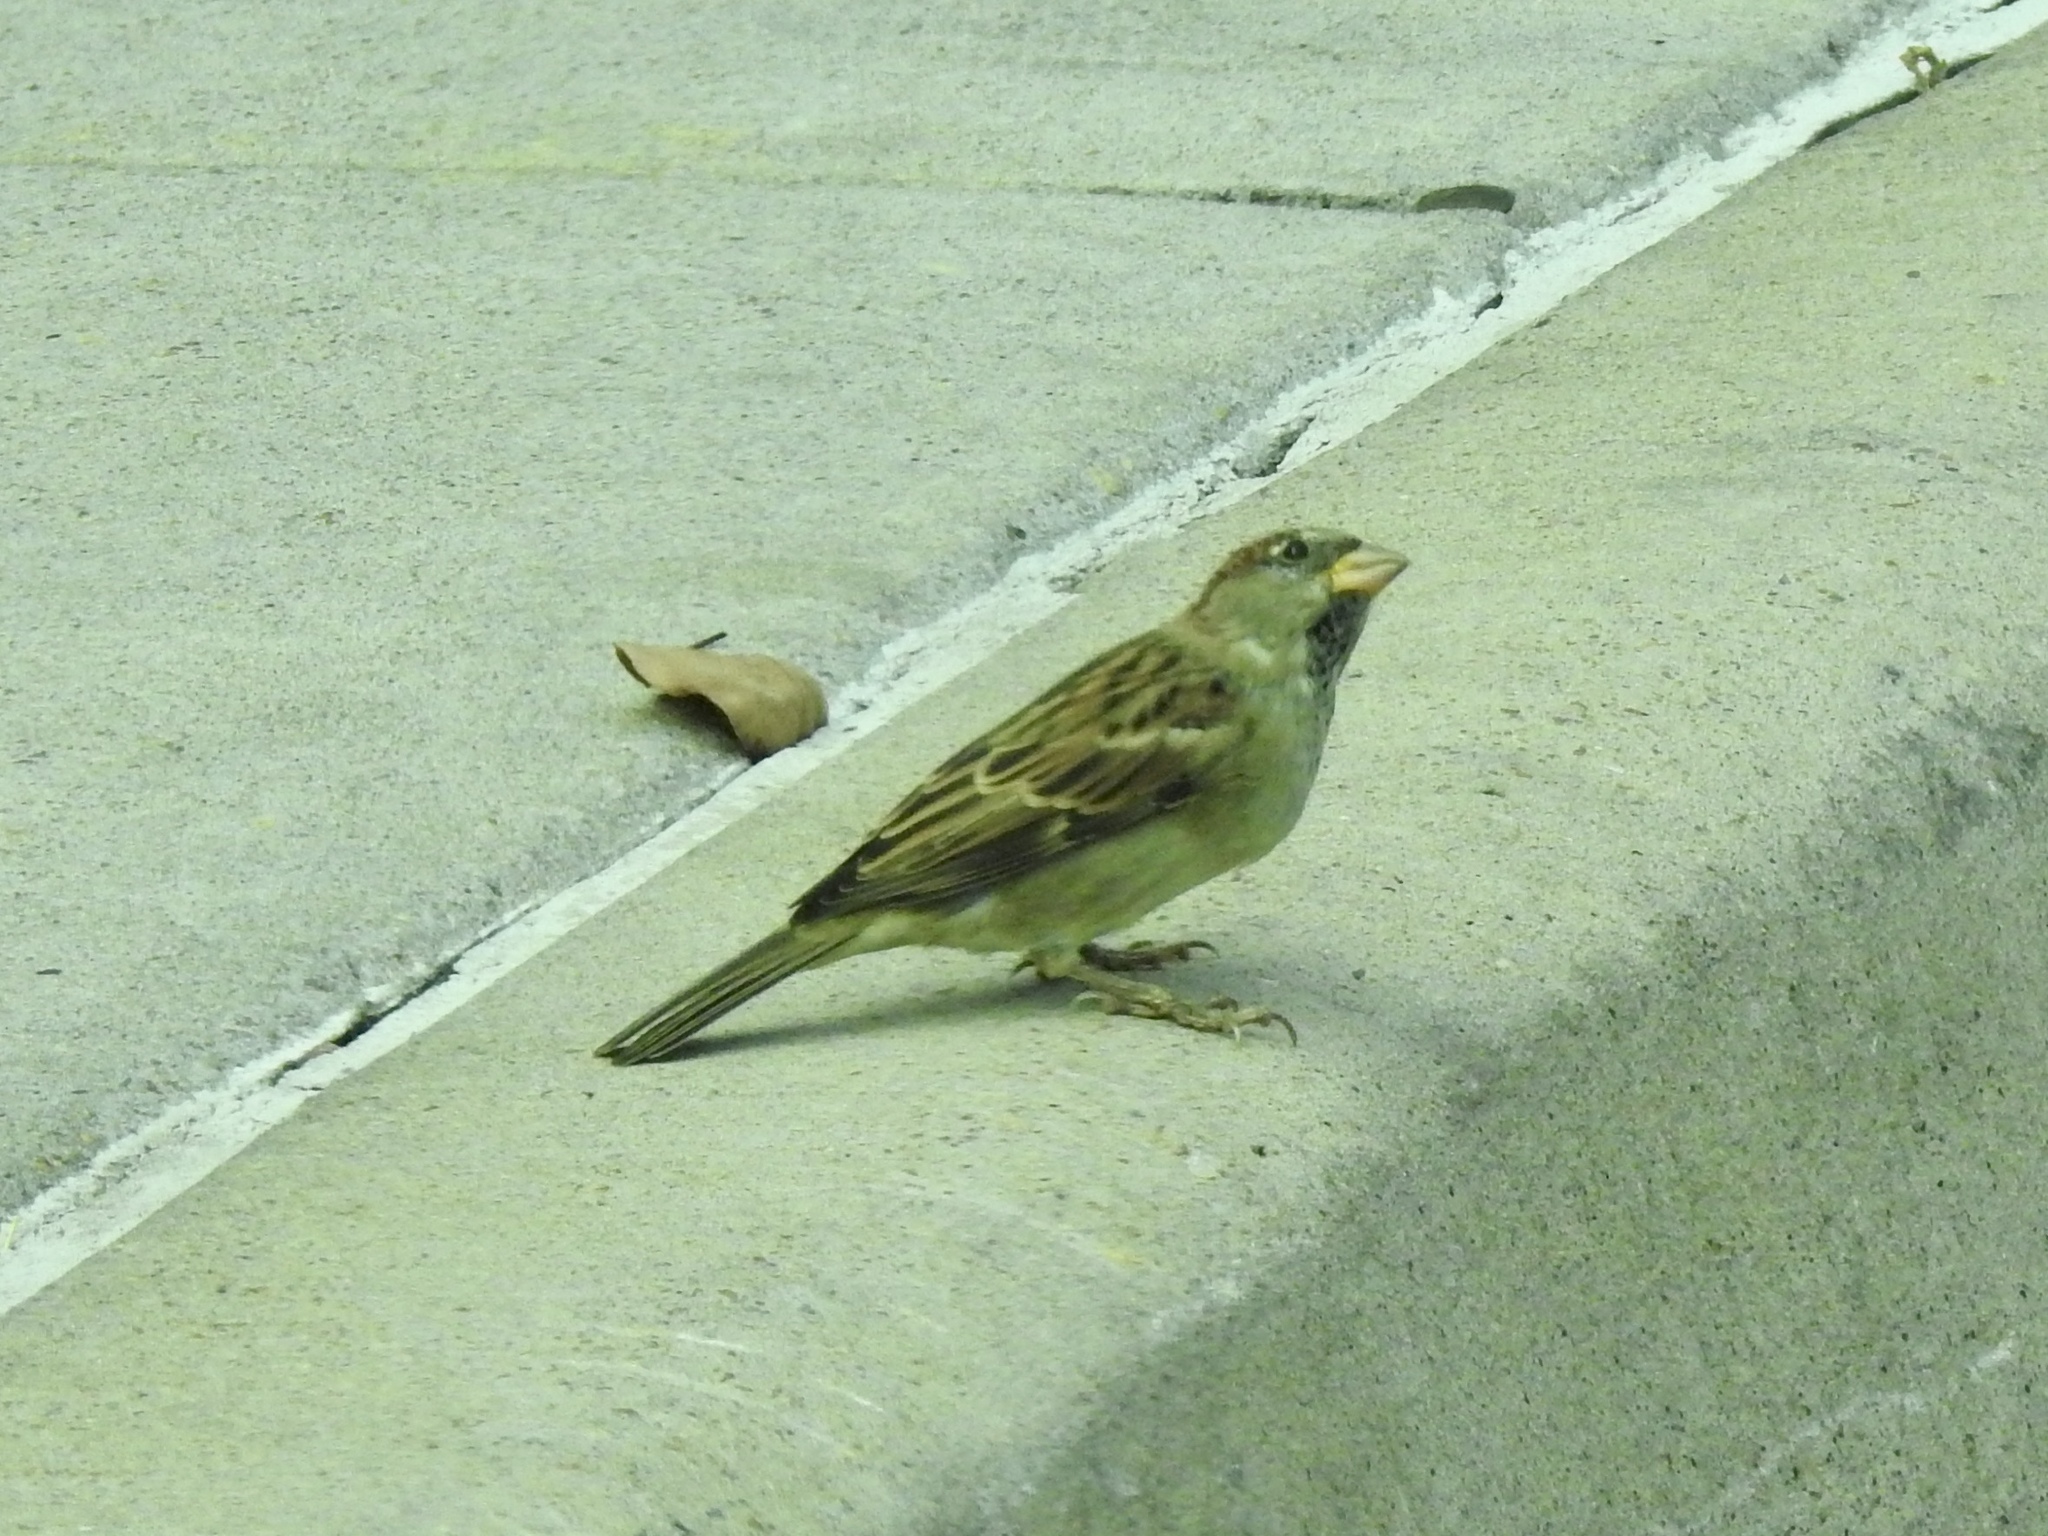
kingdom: Animalia
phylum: Chordata
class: Aves
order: Passeriformes
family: Passeridae
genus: Passer
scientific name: Passer domesticus
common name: House sparrow
